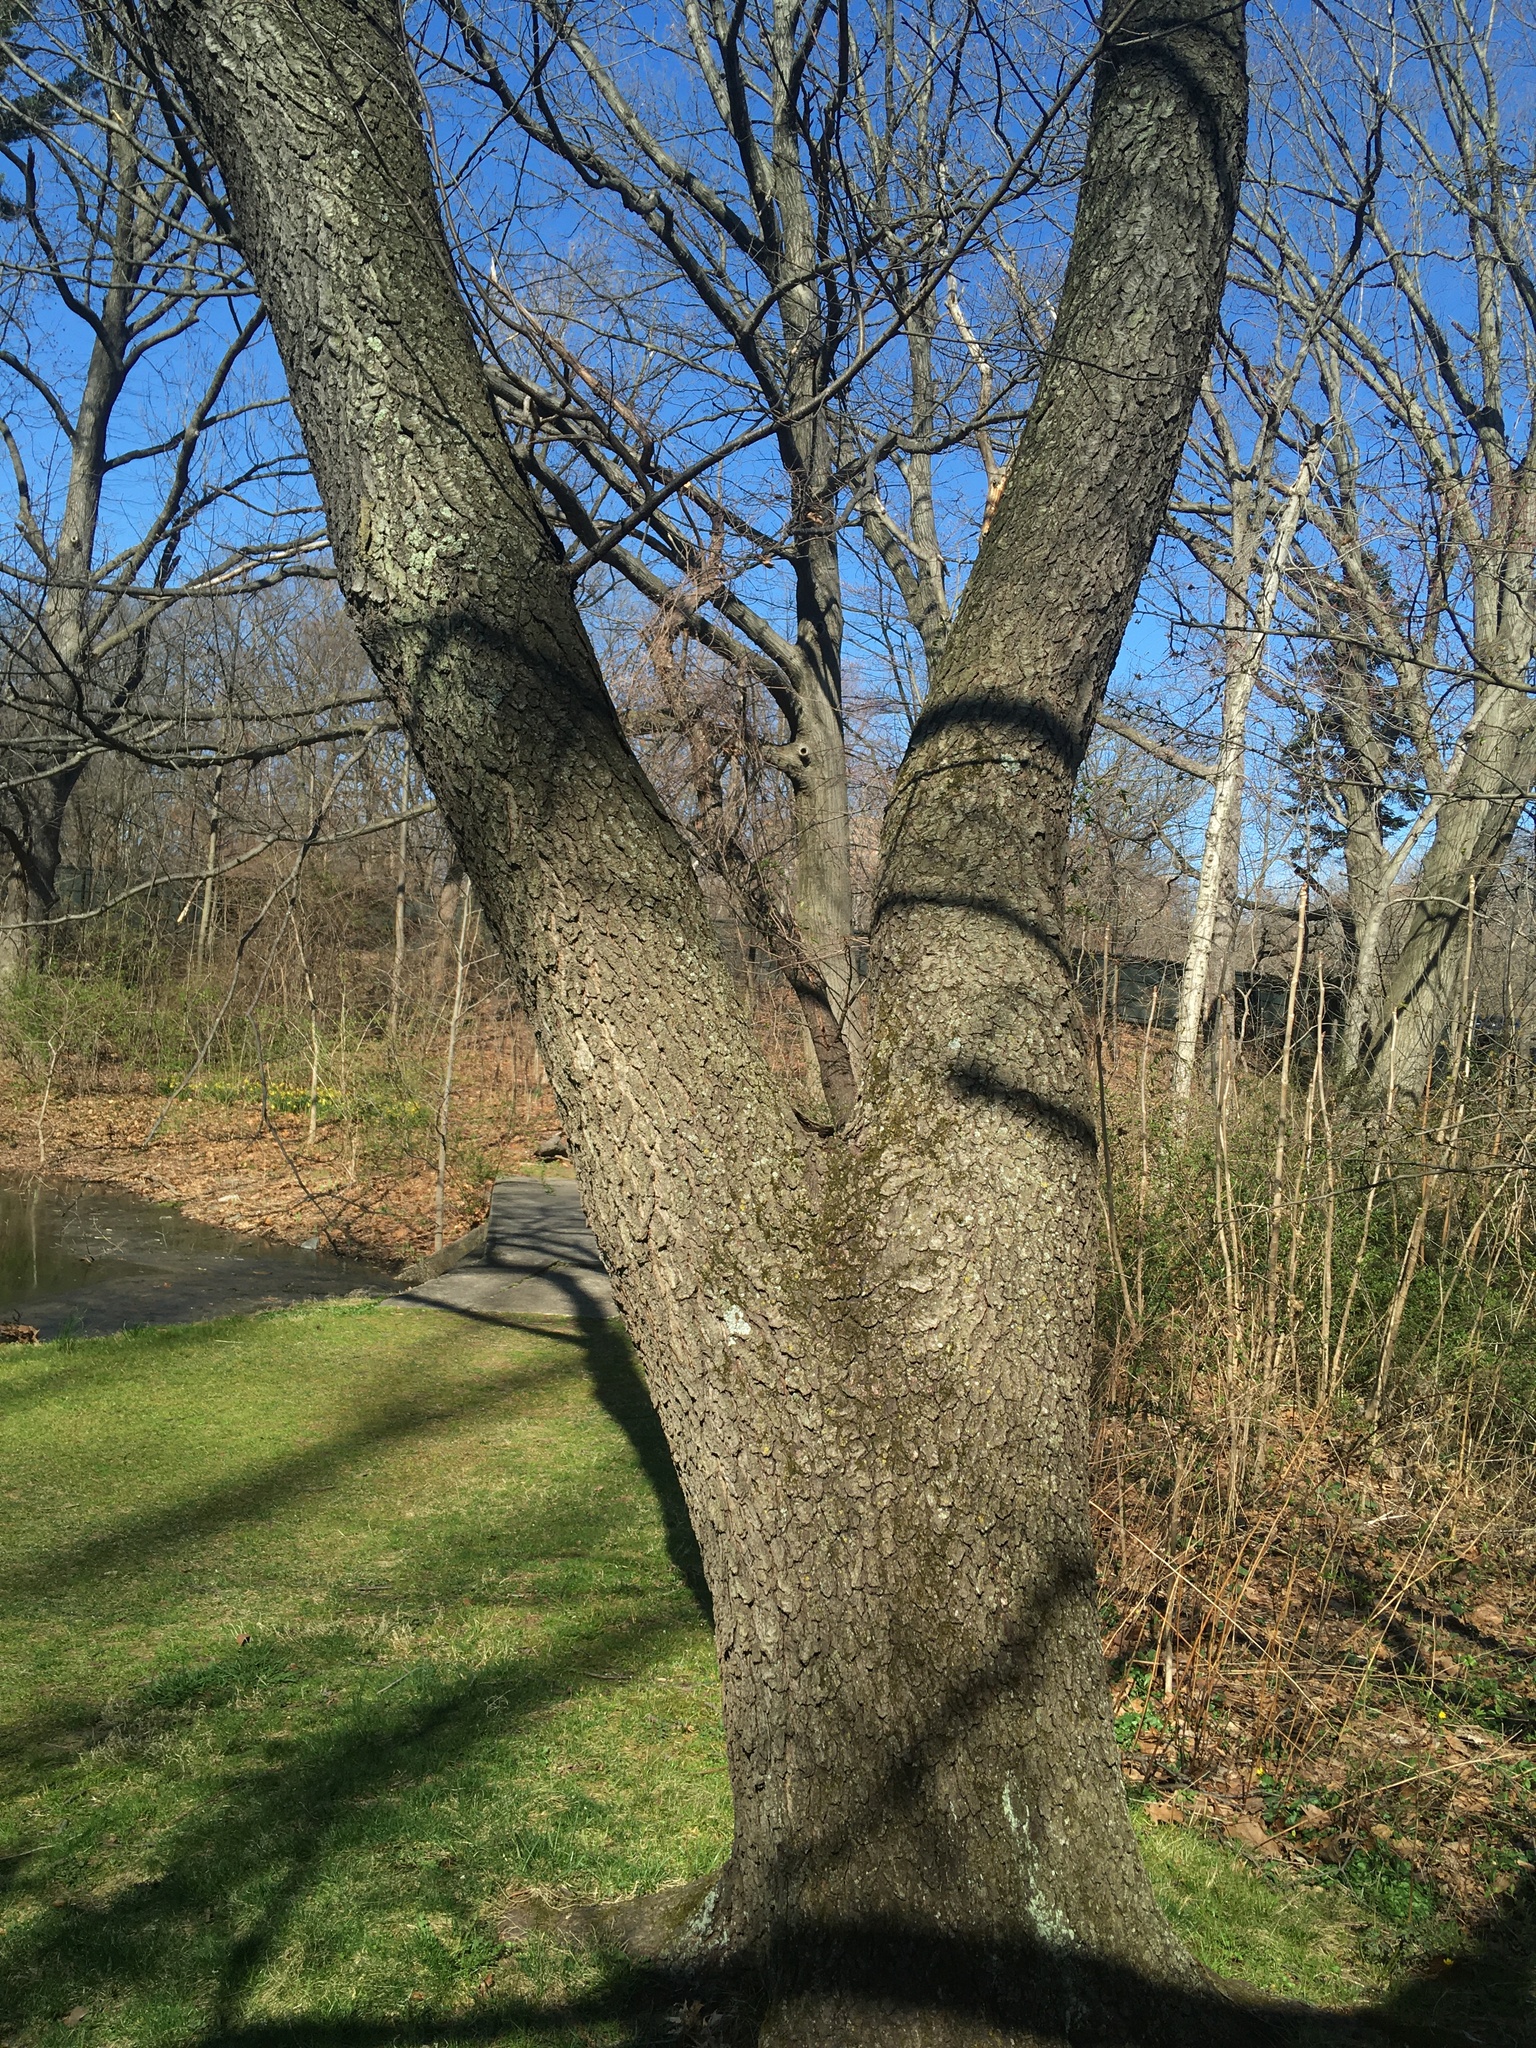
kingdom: Plantae
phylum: Tracheophyta
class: Magnoliopsida
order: Rosales
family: Rosaceae
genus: Prunus
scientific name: Prunus serotina
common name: Black cherry
